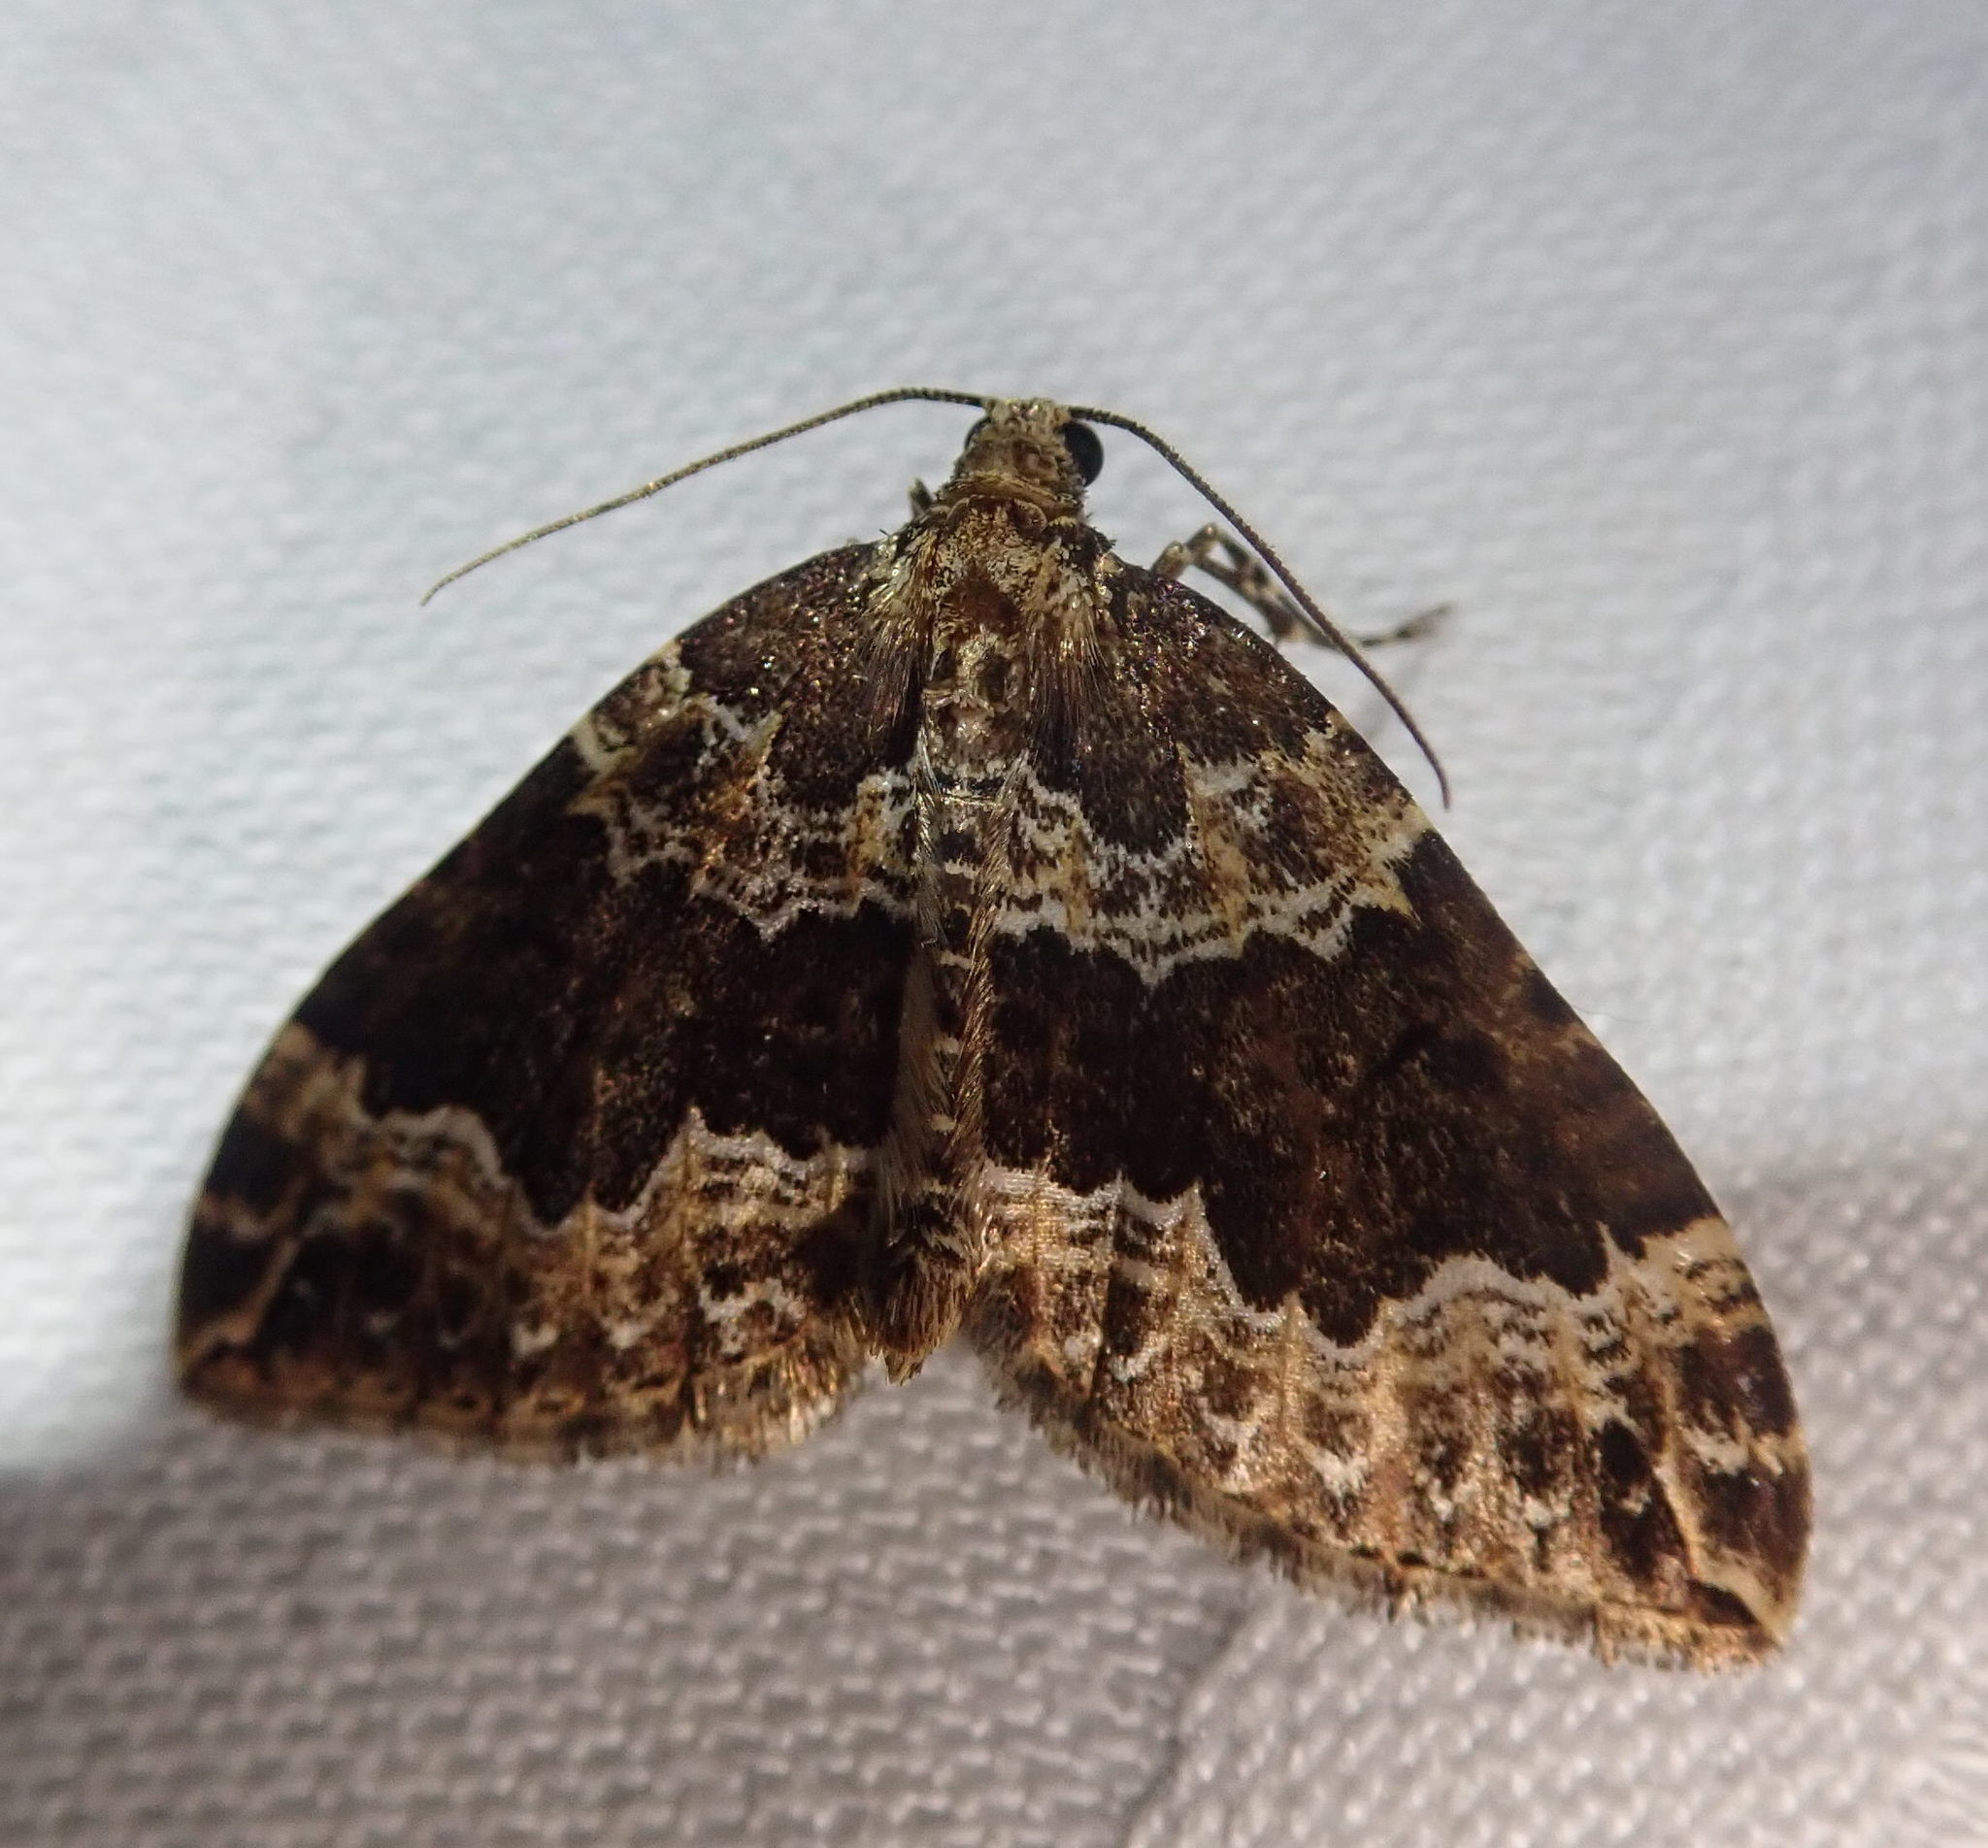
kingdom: Animalia
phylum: Arthropoda
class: Insecta
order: Lepidoptera
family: Geometridae
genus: Lampropteryx
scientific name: Lampropteryx suffumata
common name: Water carpet
